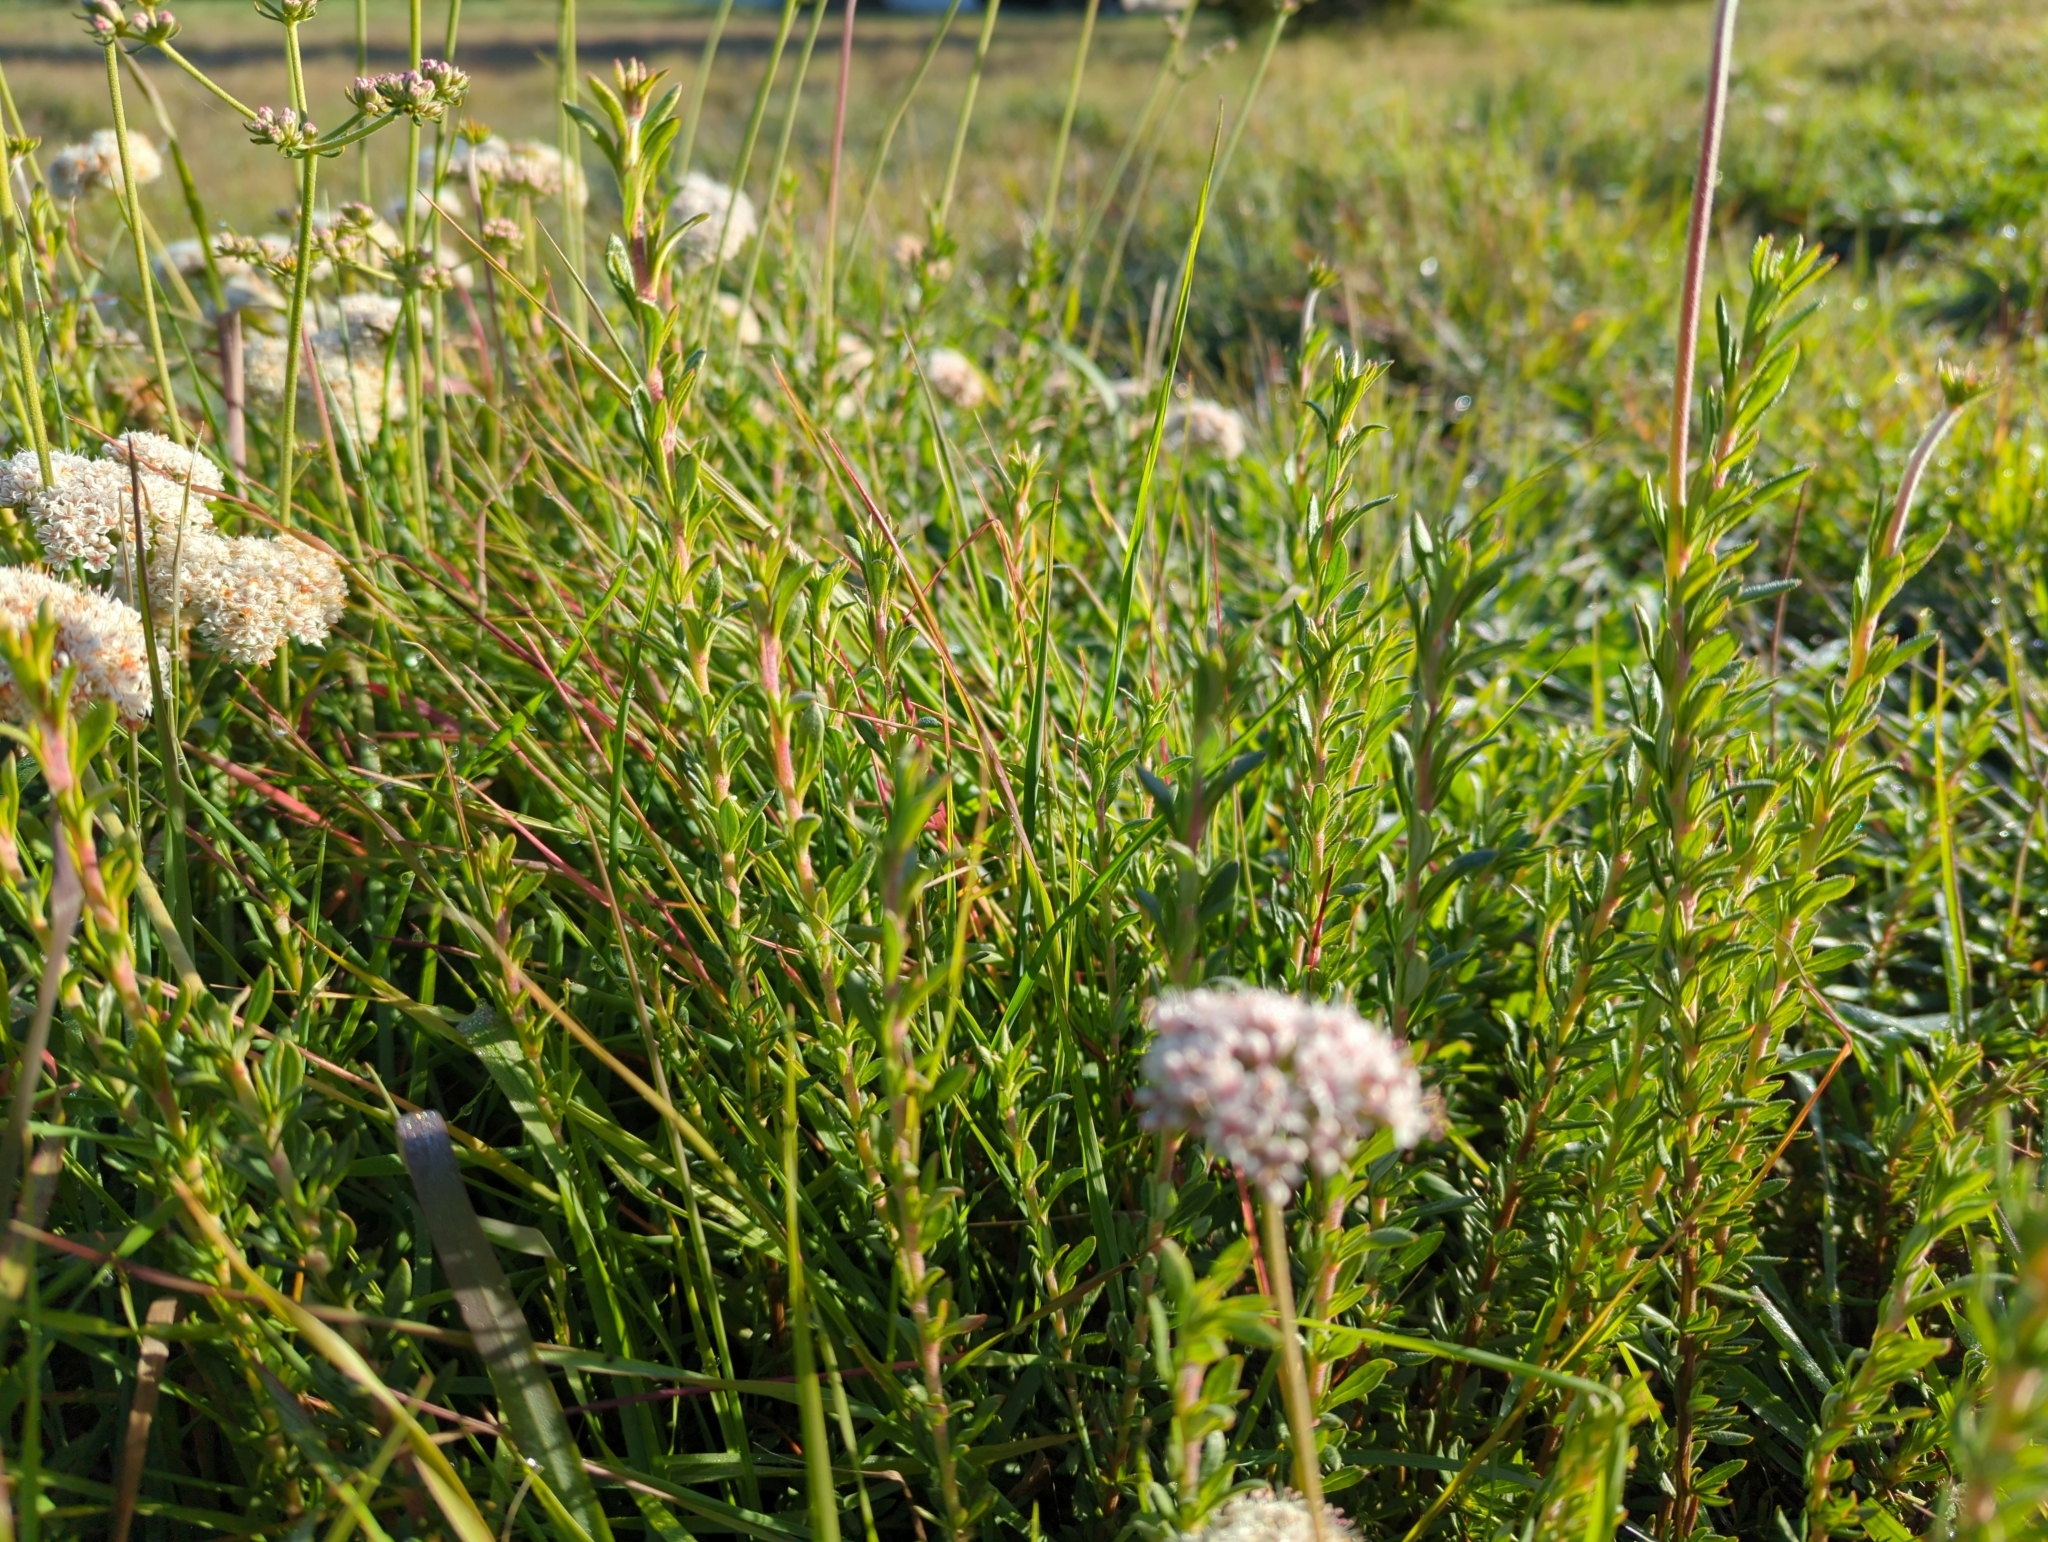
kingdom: Plantae
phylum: Tracheophyta
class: Magnoliopsida
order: Caryophyllales
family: Polygonaceae
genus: Eriogonum
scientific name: Eriogonum fasciculatum
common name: California wild buckwheat
